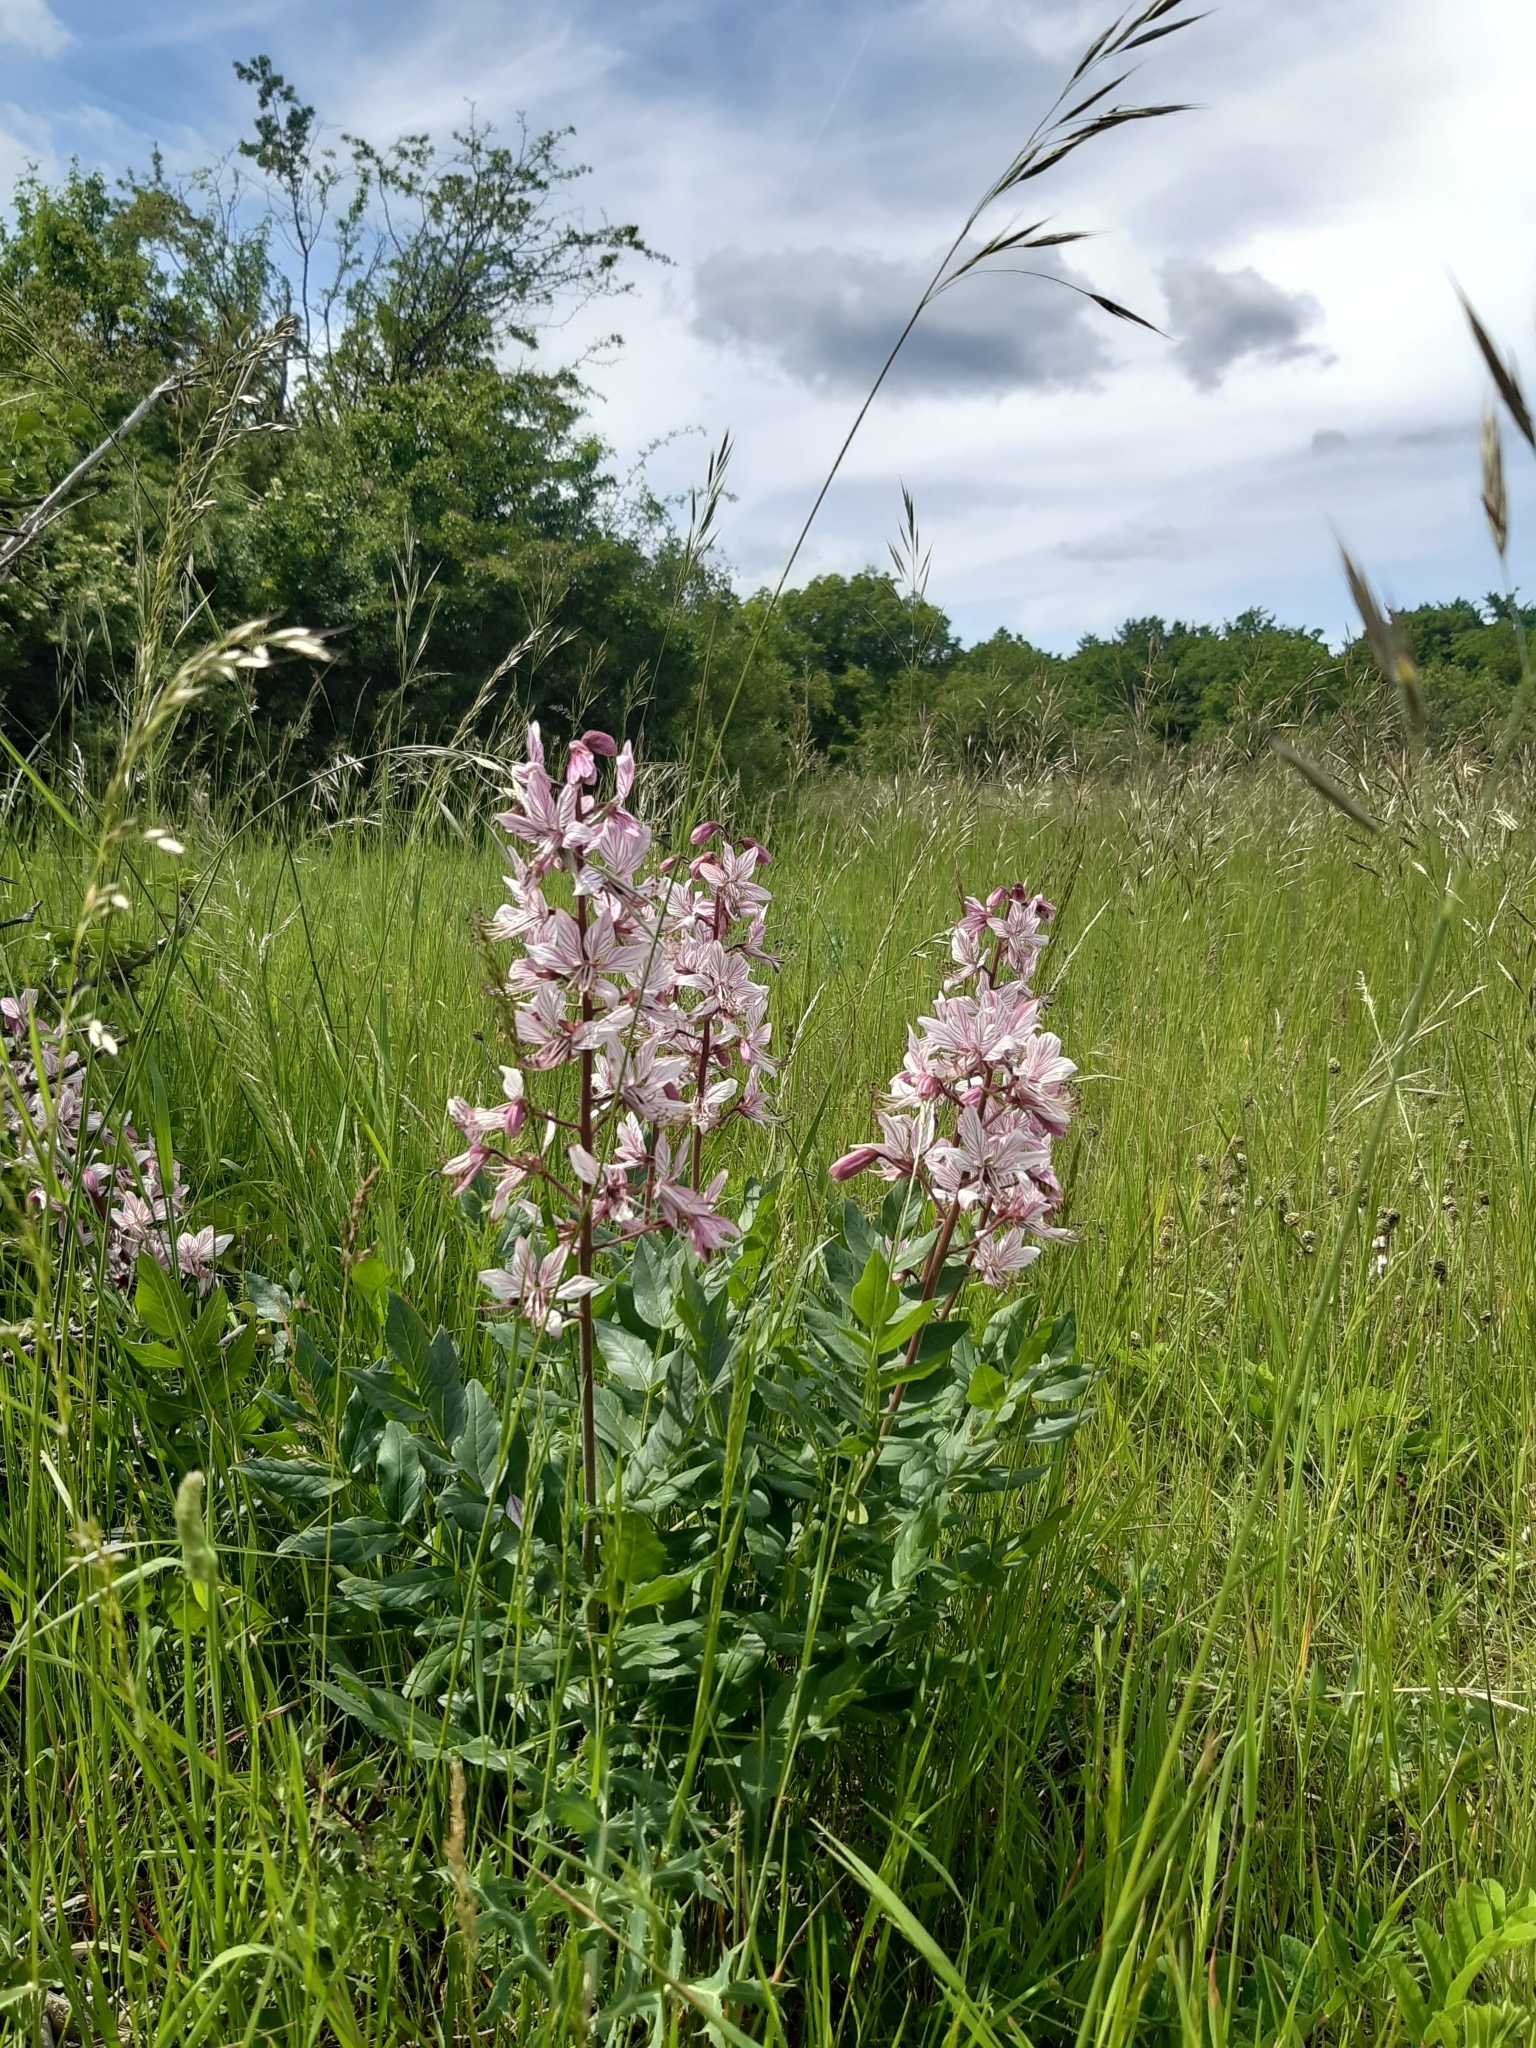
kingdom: Plantae
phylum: Tracheophyta
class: Magnoliopsida
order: Sapindales
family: Rutaceae
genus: Dictamnus
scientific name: Dictamnus albus
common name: Gasplant
